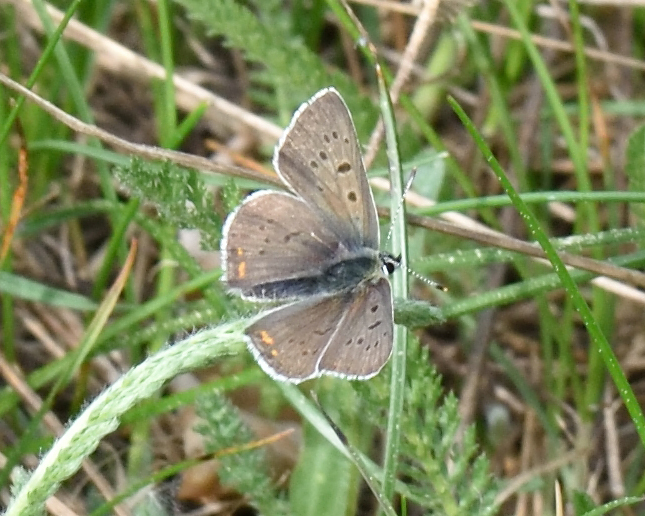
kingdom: Animalia
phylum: Arthropoda
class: Insecta
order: Lepidoptera
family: Lycaenidae
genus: Loweia
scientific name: Loweia tityrus
